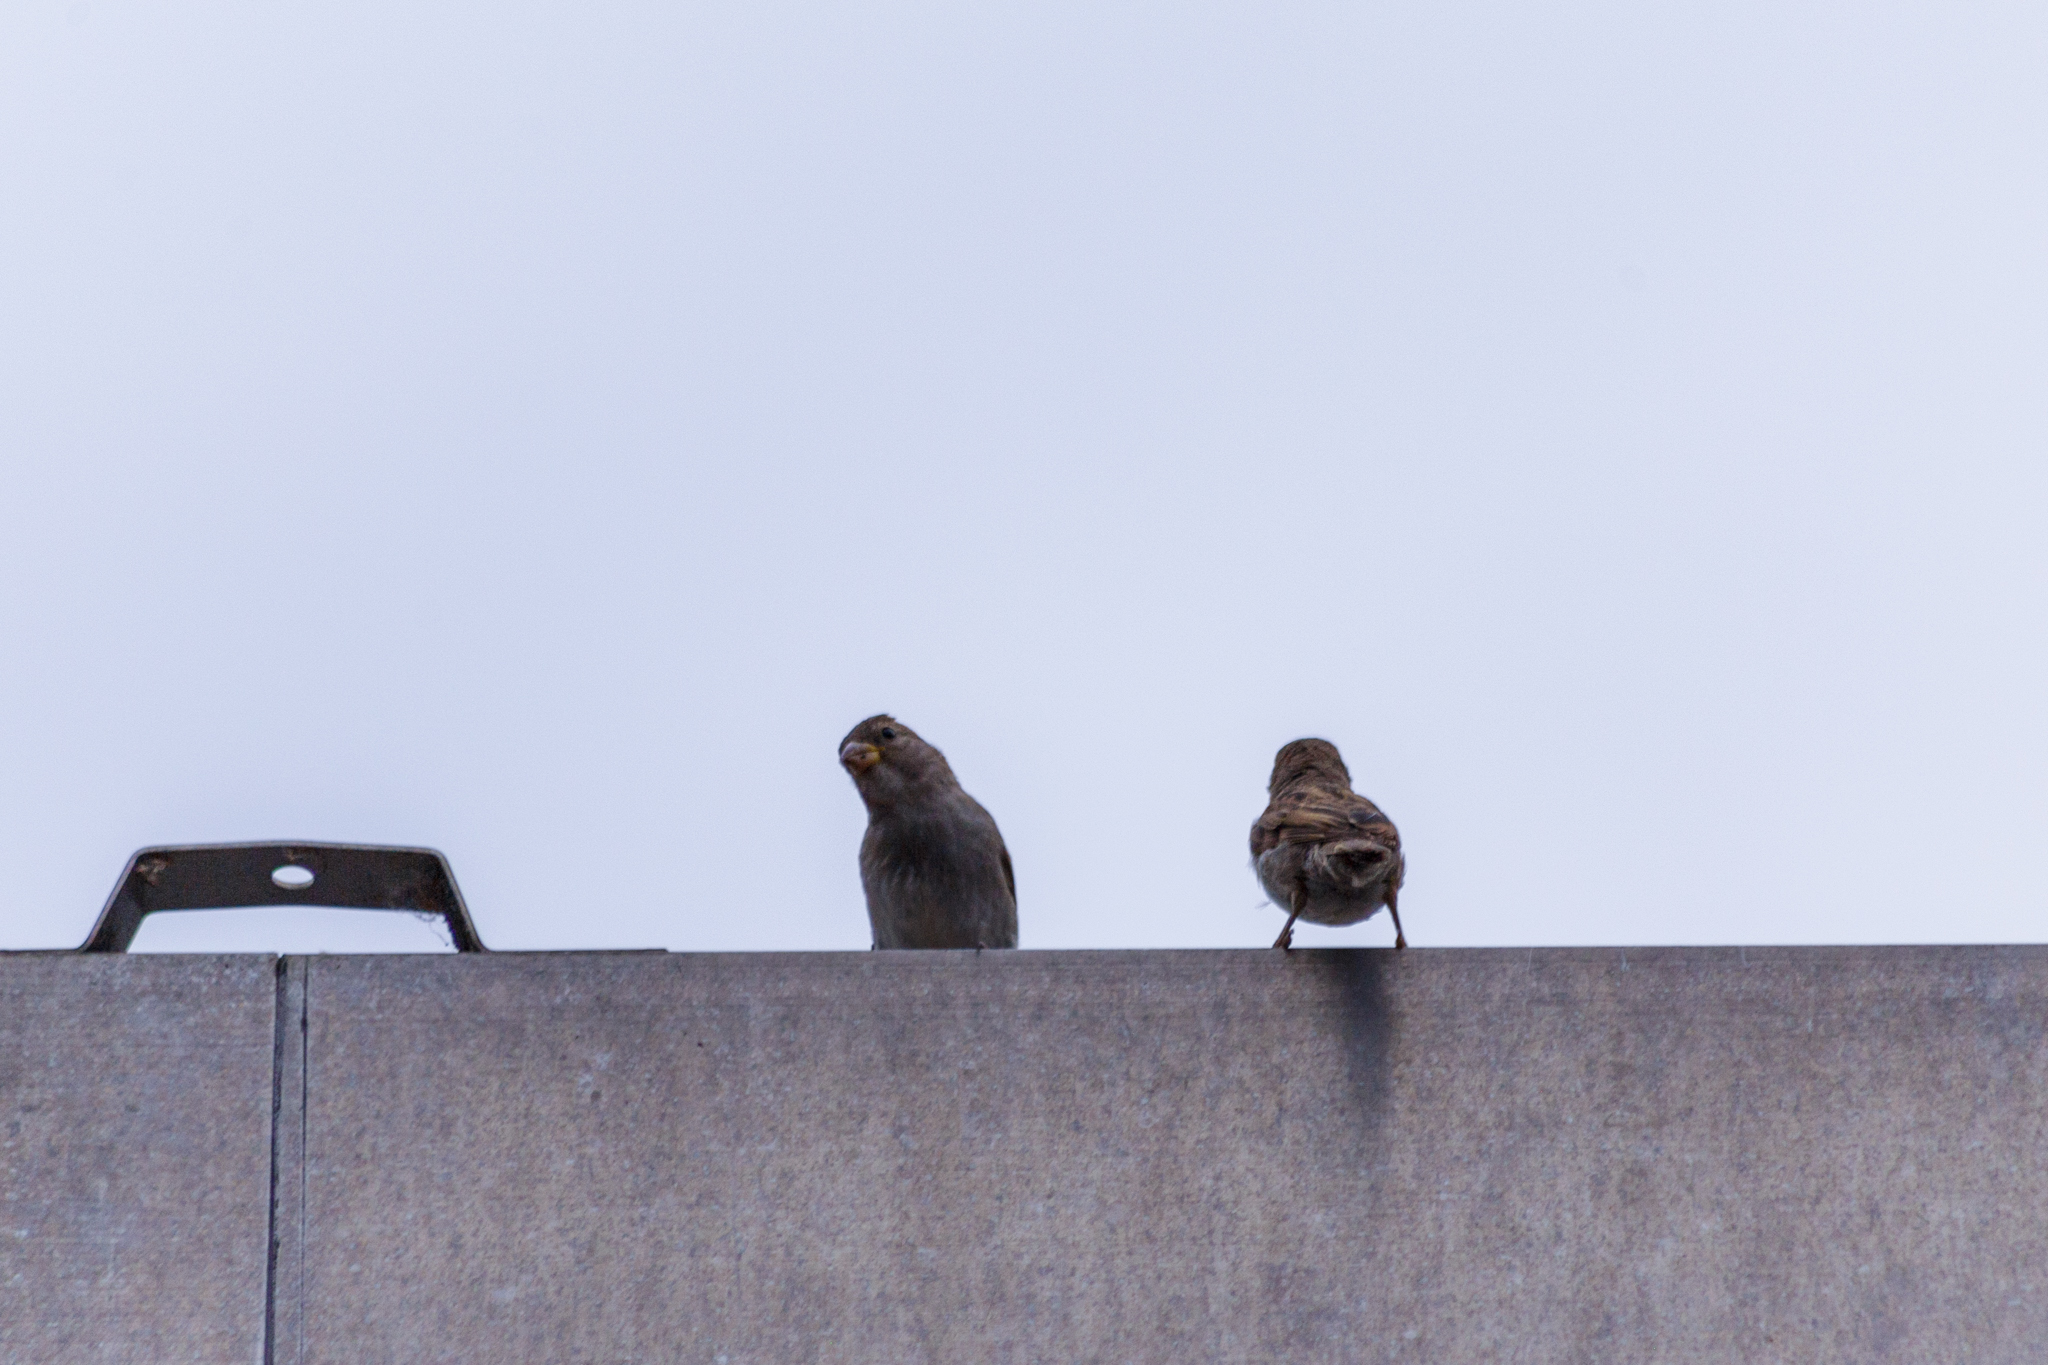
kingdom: Animalia
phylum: Chordata
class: Aves
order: Passeriformes
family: Passeridae
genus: Passer
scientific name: Passer domesticus
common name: House sparrow
